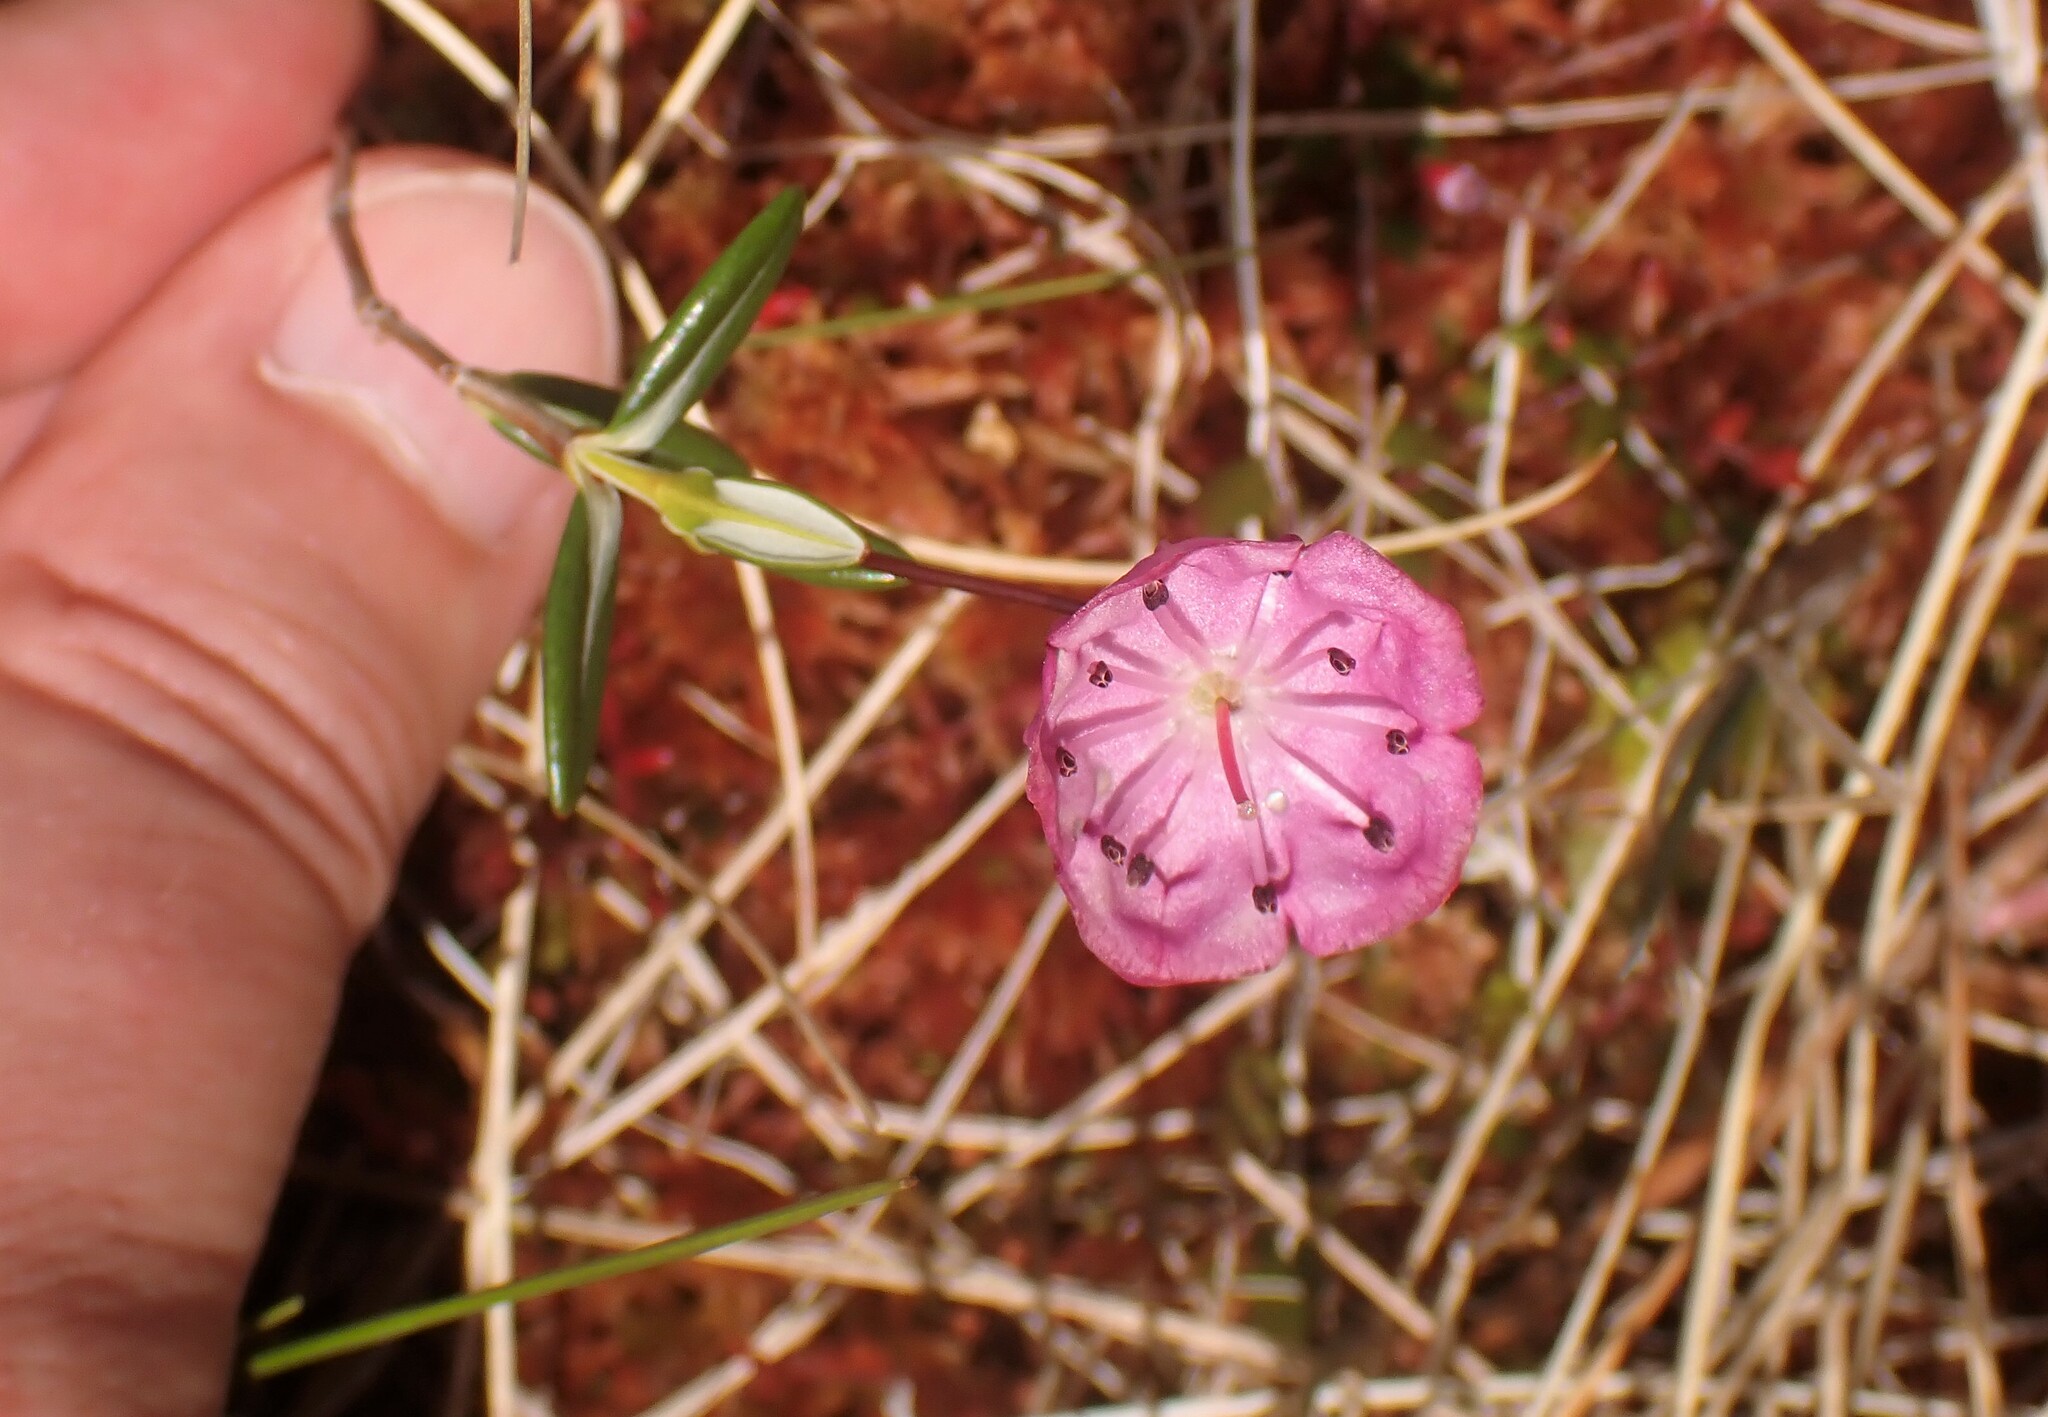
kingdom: Plantae
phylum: Tracheophyta
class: Magnoliopsida
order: Ericales
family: Ericaceae
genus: Kalmia
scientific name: Kalmia polifolia
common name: Bog-laurel
